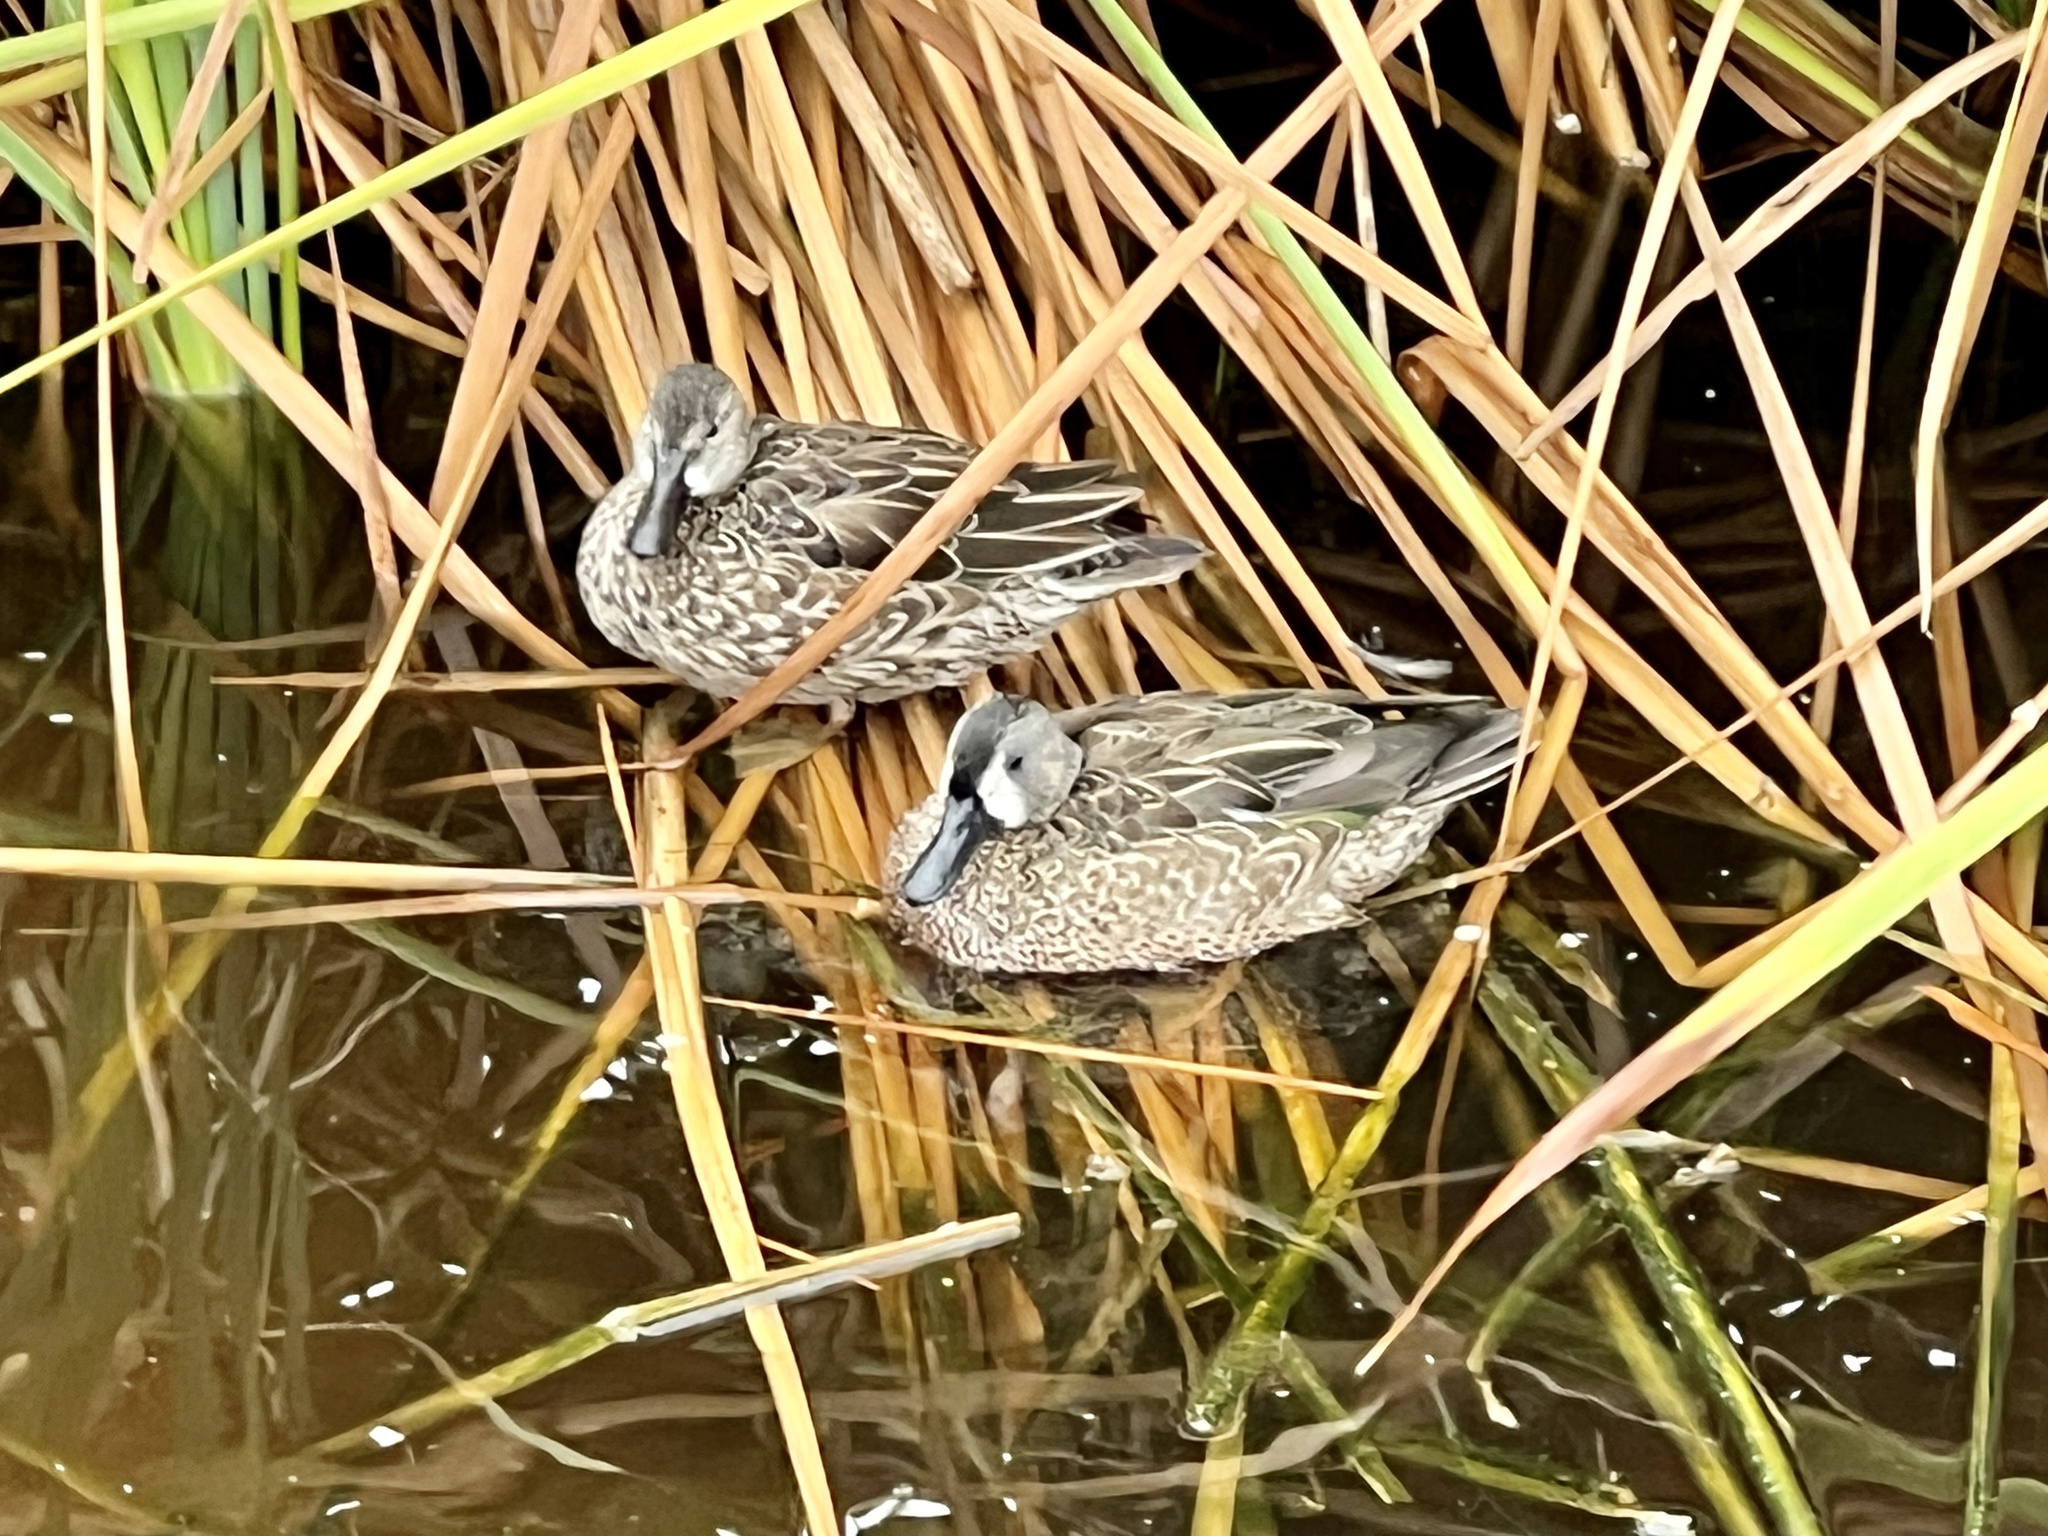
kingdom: Animalia
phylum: Chordata
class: Aves
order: Anseriformes
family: Anatidae
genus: Spatula
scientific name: Spatula discors
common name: Blue-winged teal
